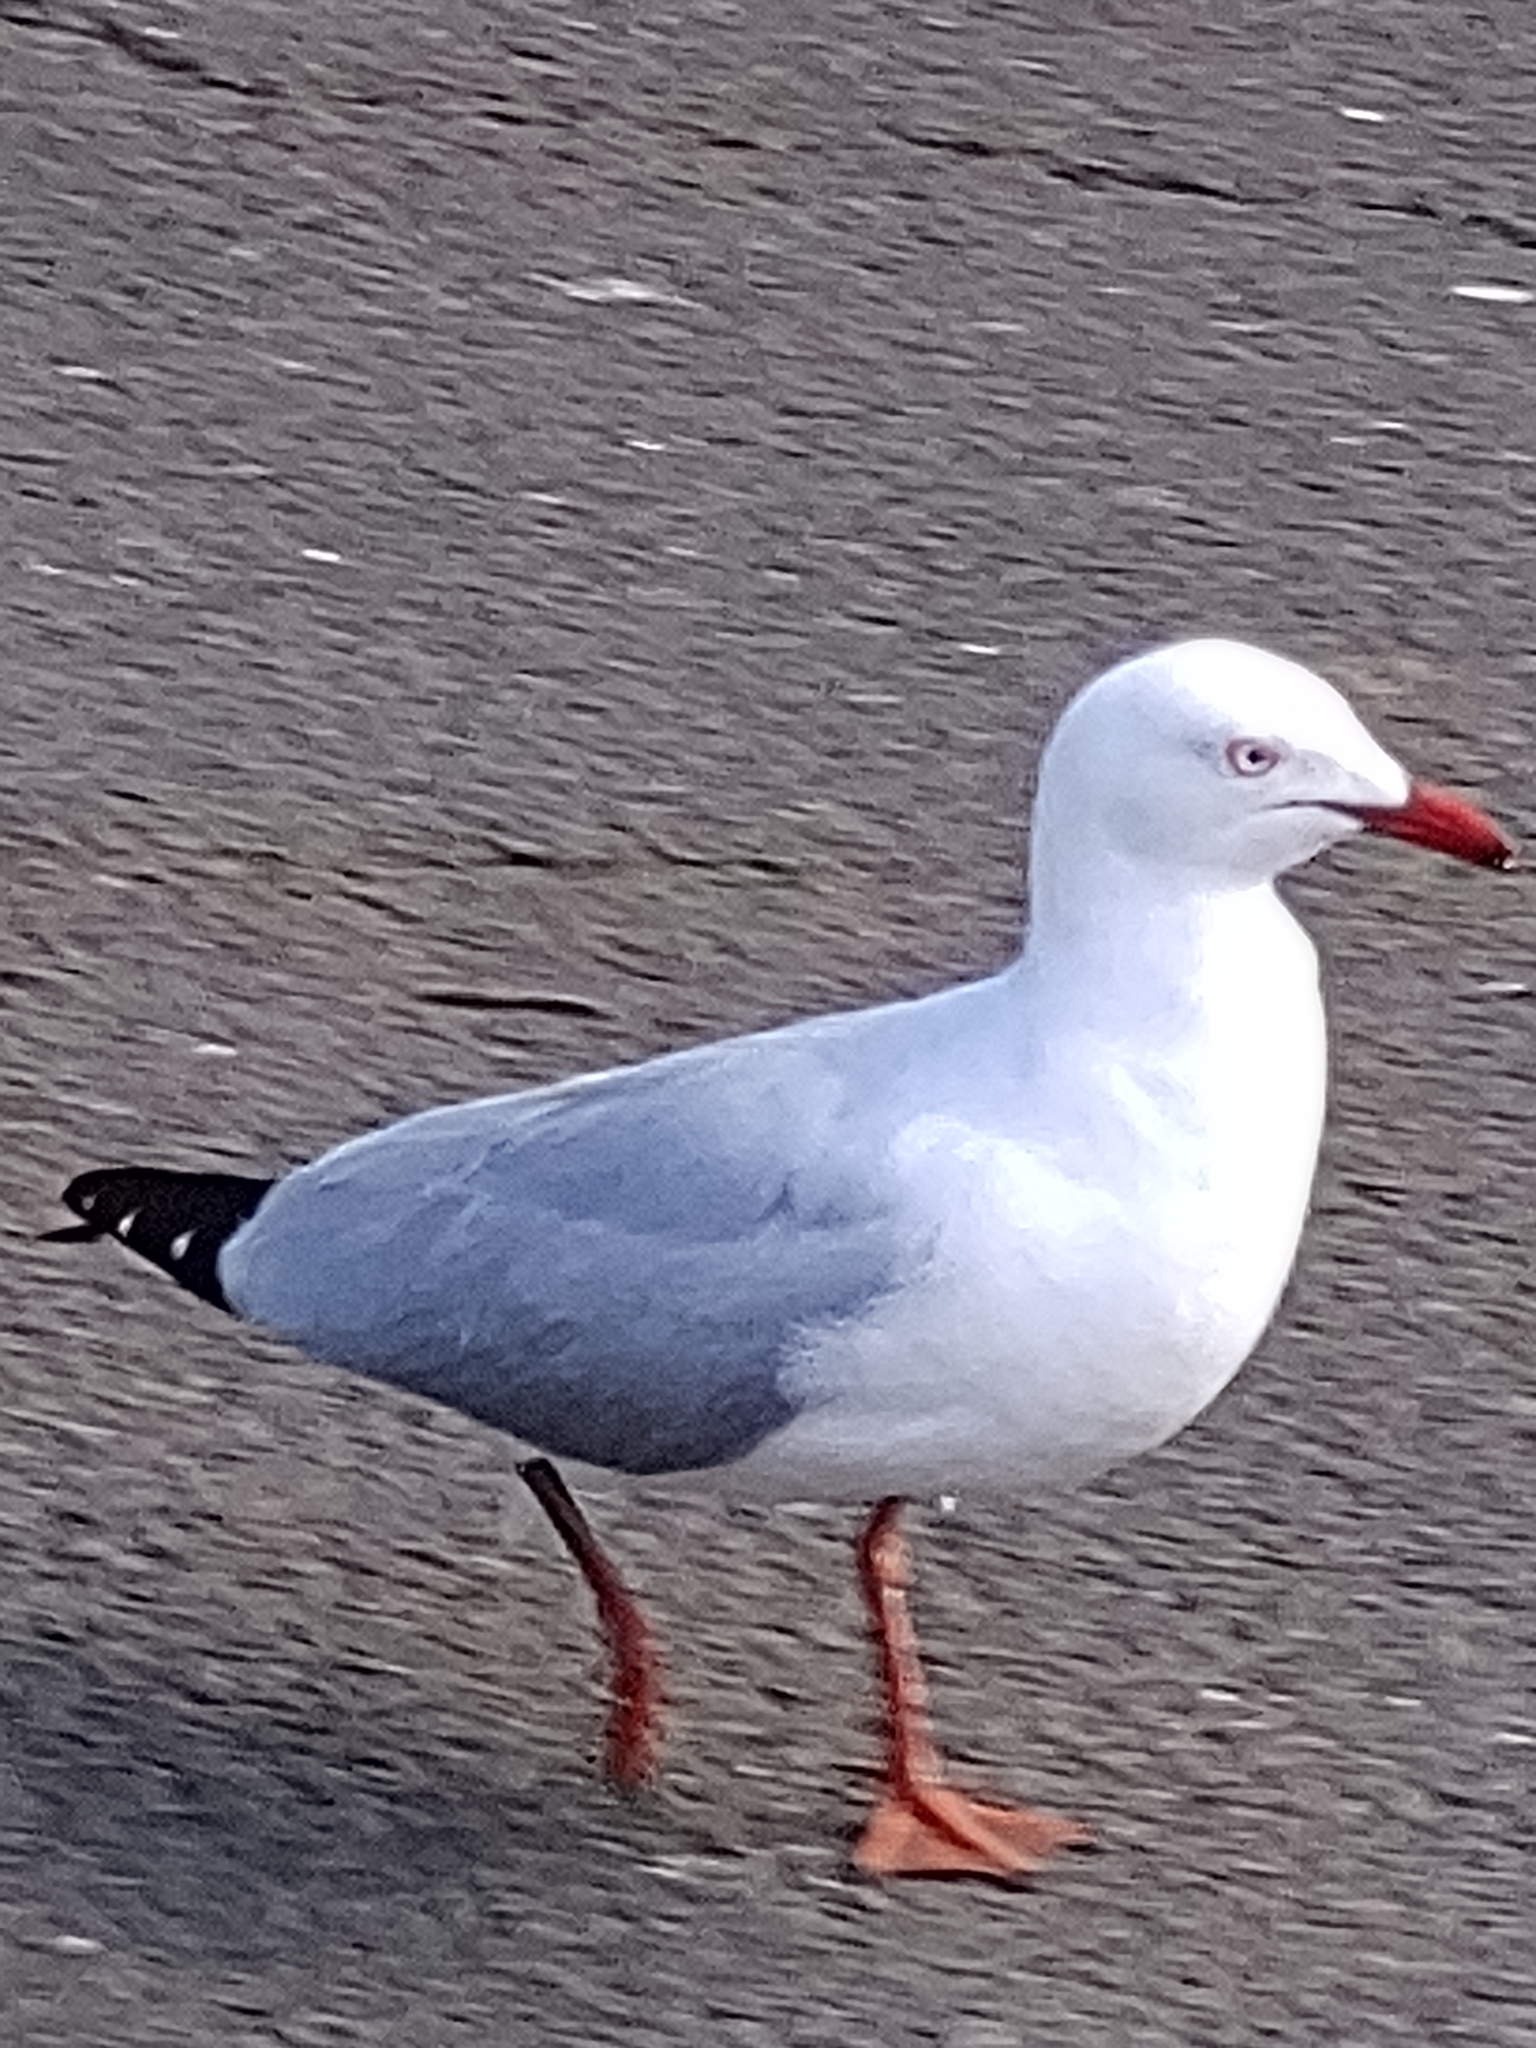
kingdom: Animalia
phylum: Chordata
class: Aves
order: Charadriiformes
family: Laridae
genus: Chroicocephalus
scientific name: Chroicocephalus novaehollandiae
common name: Silver gull
